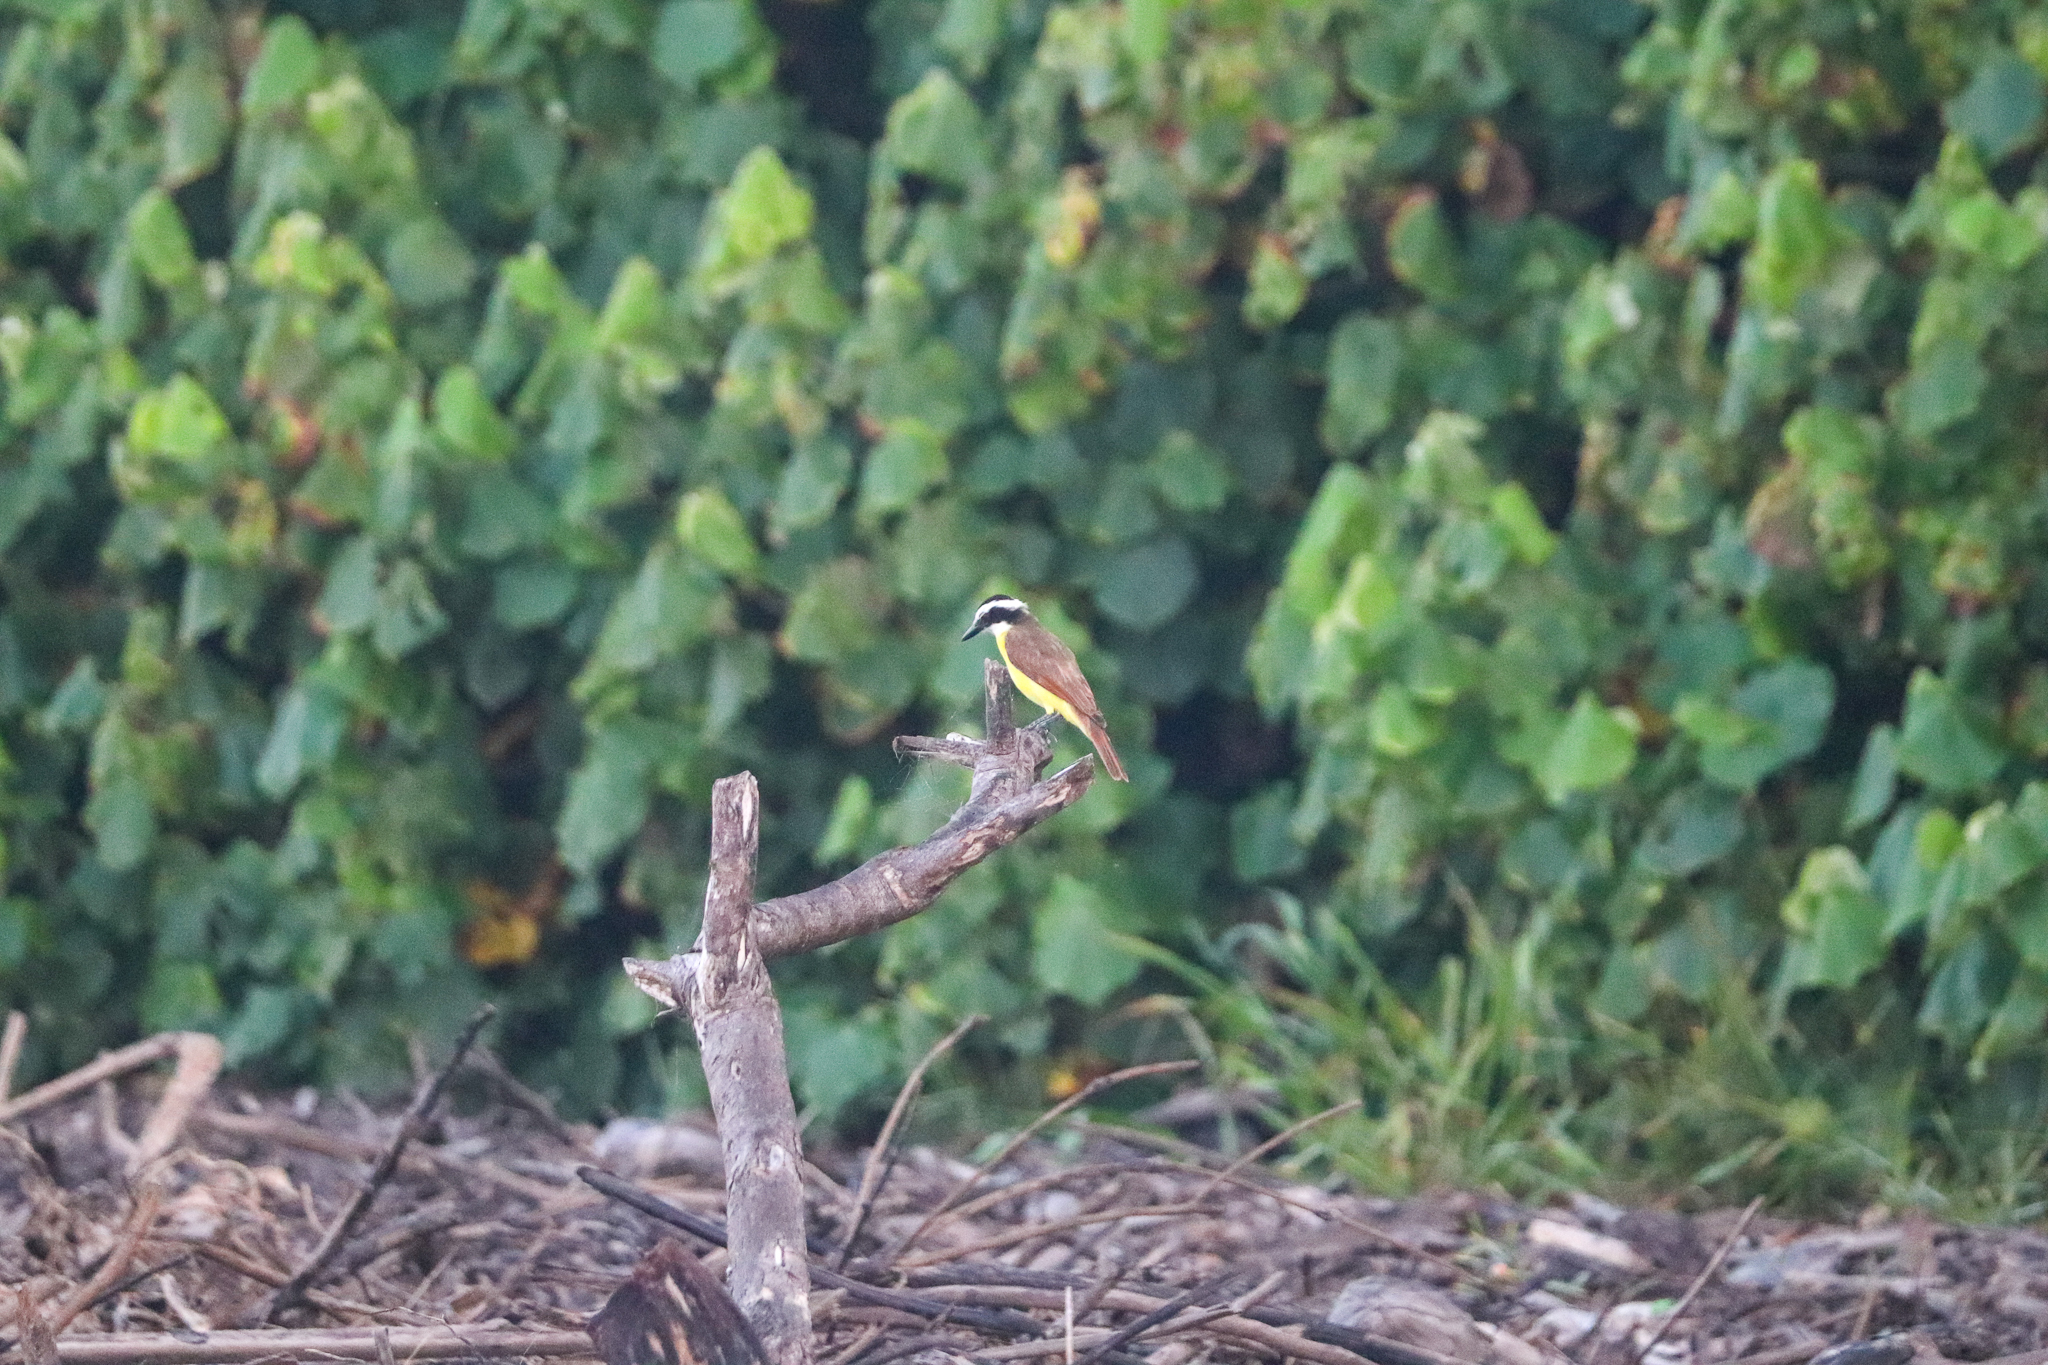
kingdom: Animalia
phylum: Chordata
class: Aves
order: Passeriformes
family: Tyrannidae
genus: Pitangus
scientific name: Pitangus sulphuratus
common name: Great kiskadee
